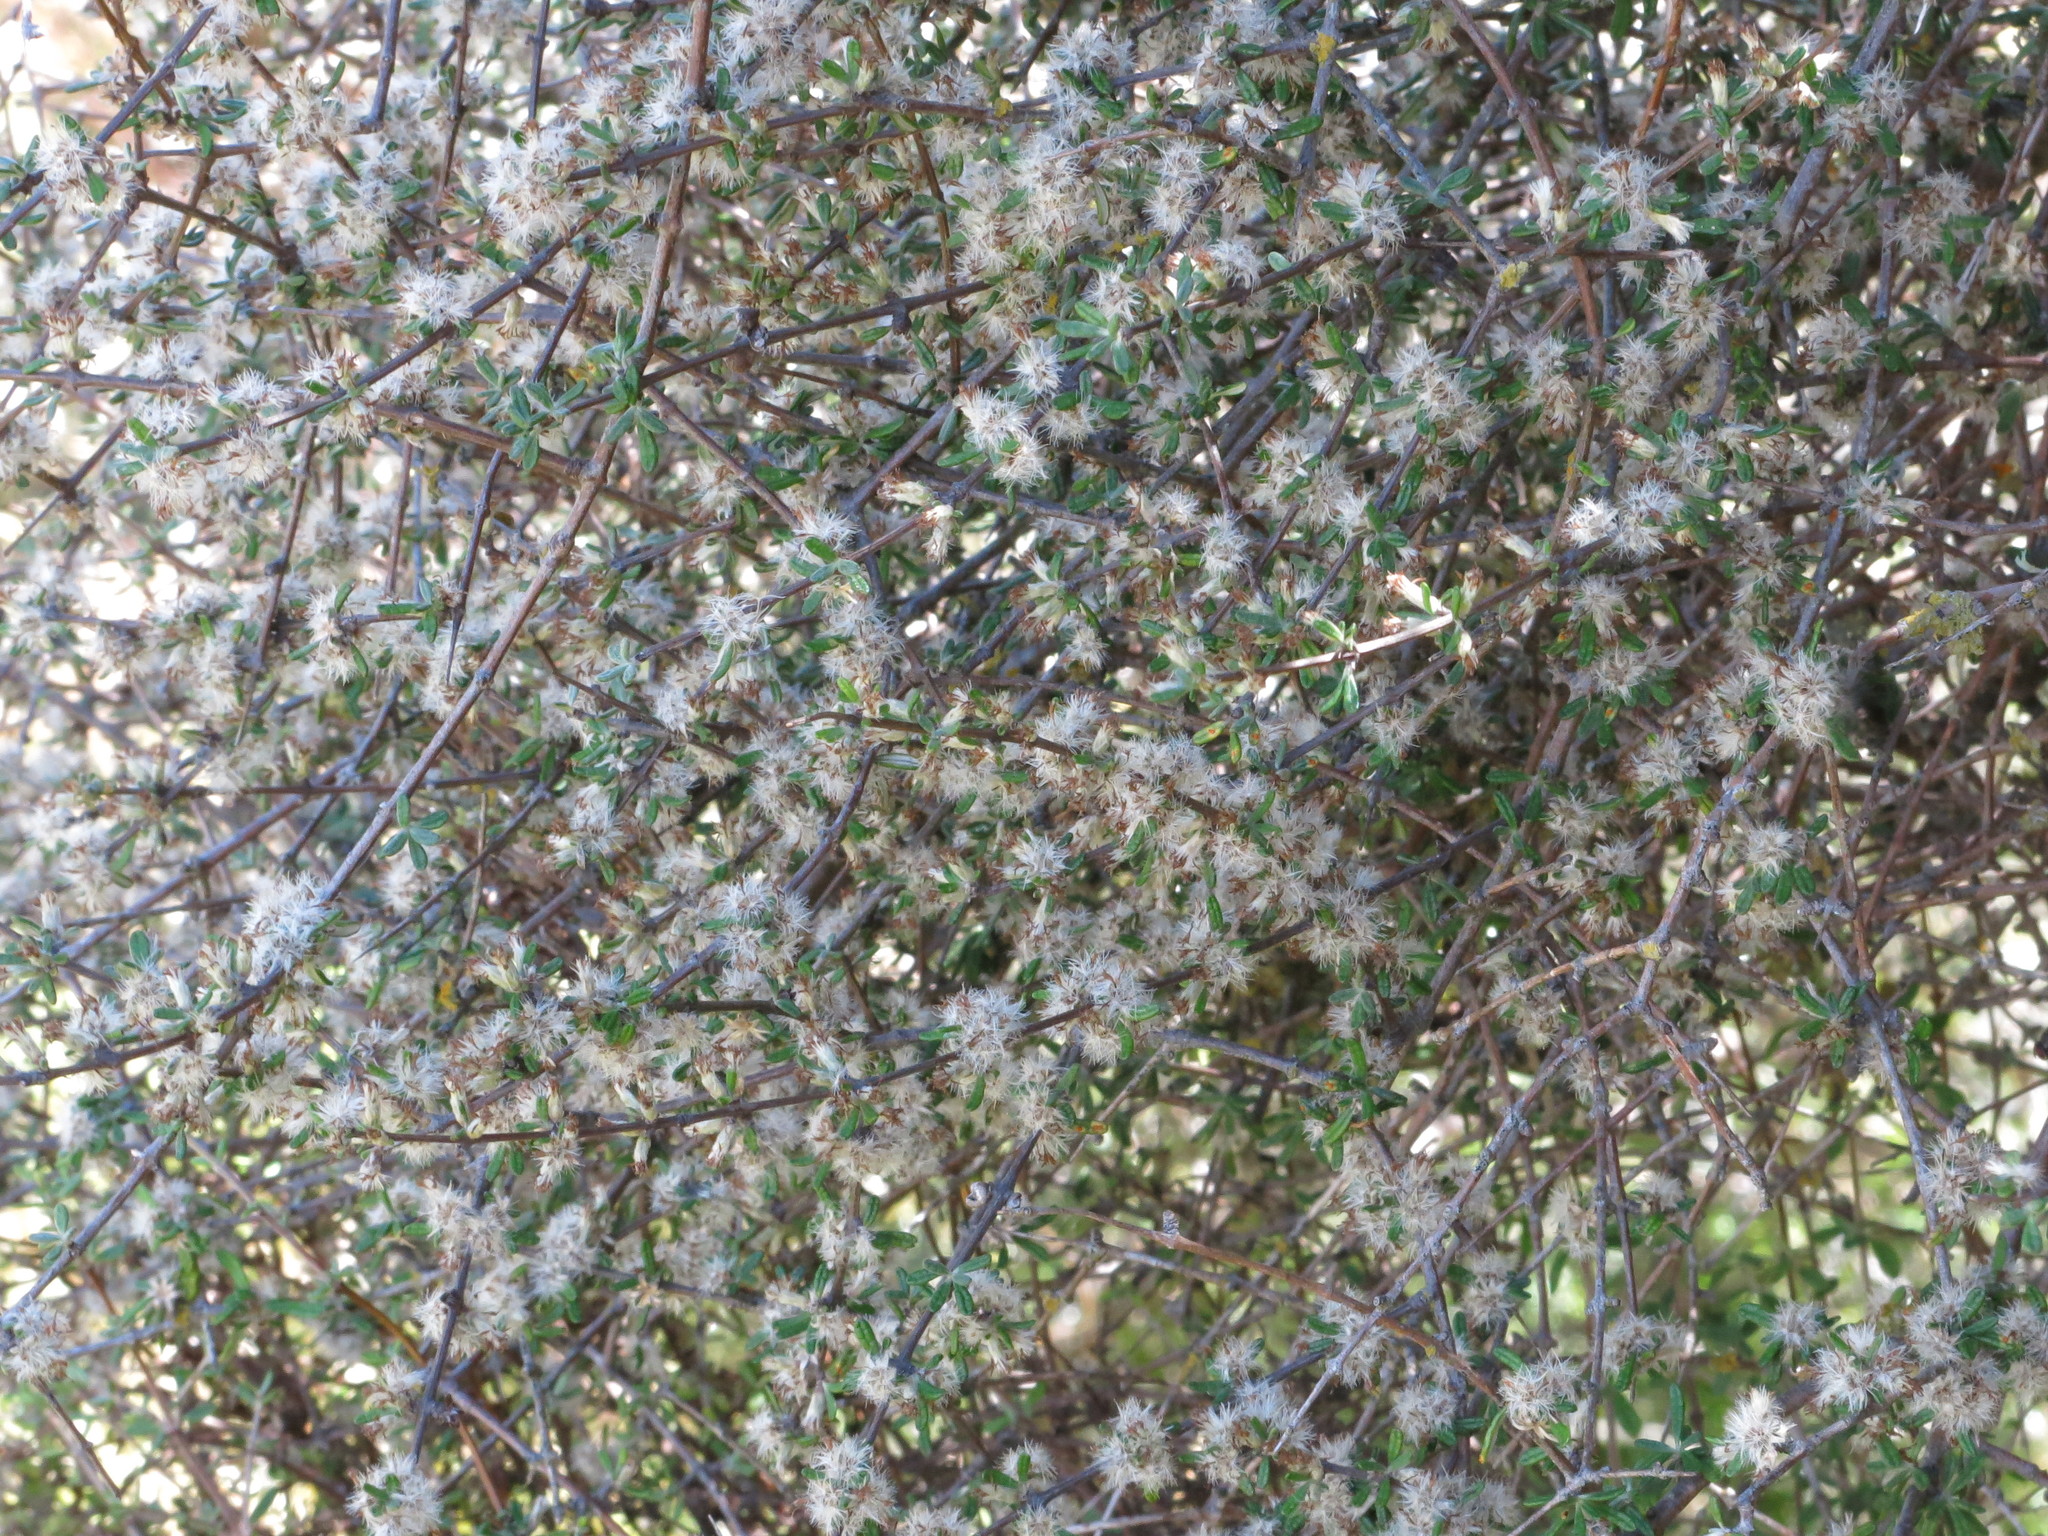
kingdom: Plantae
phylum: Tracheophyta
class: Magnoliopsida
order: Asterales
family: Asteraceae
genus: Olearia
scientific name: Olearia bullata
